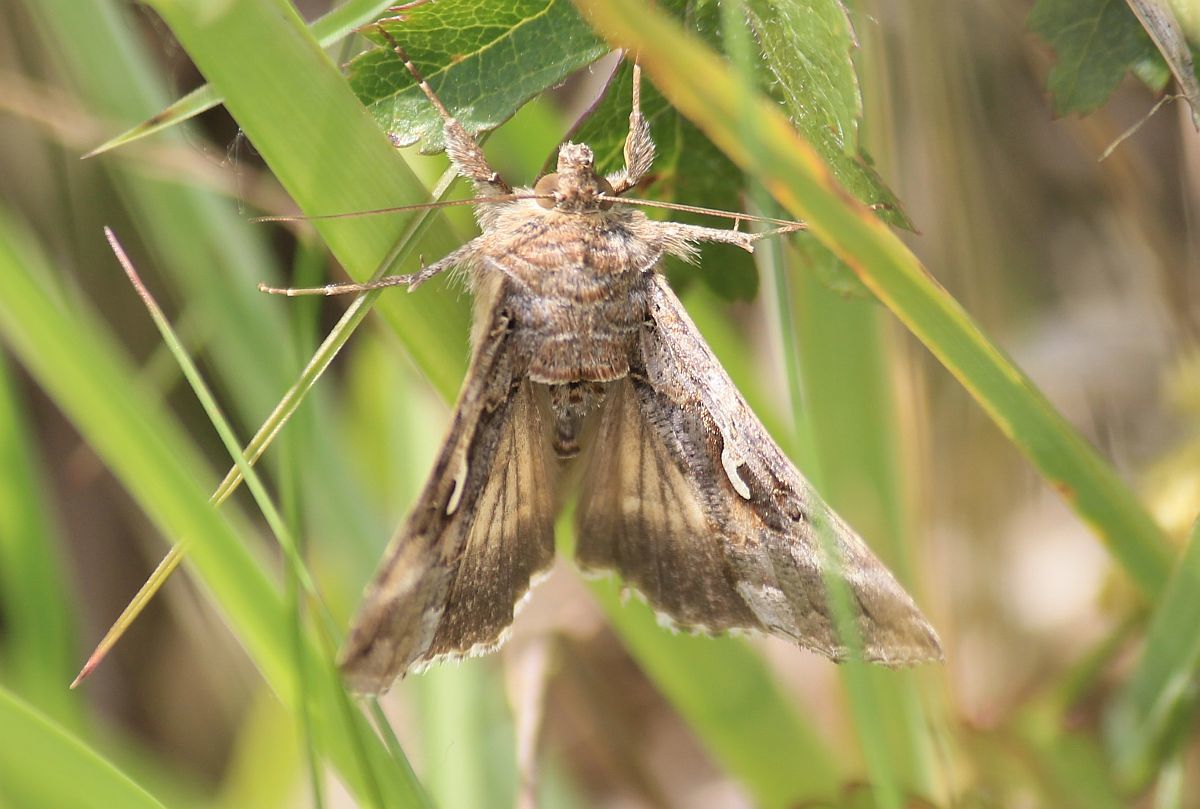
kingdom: Animalia
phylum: Arthropoda
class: Insecta
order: Lepidoptera
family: Noctuidae
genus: Autographa
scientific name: Autographa gamma
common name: Silver y
